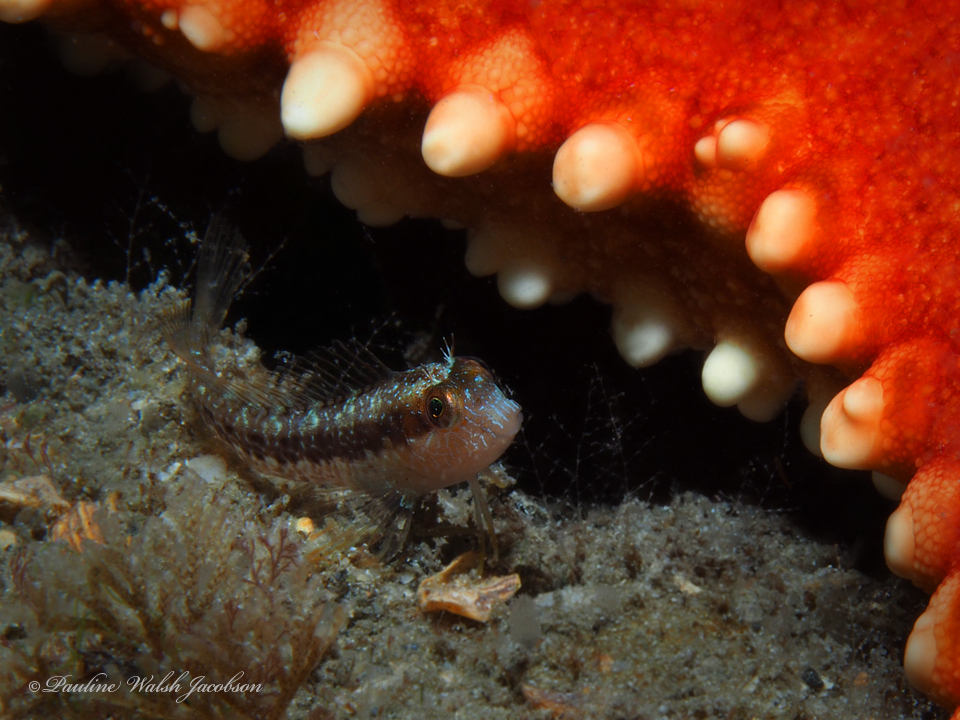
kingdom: Animalia
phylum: Chordata
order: Perciformes
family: Blenniidae
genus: Parablennius
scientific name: Parablennius marmoreus
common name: Seaweed blenny
